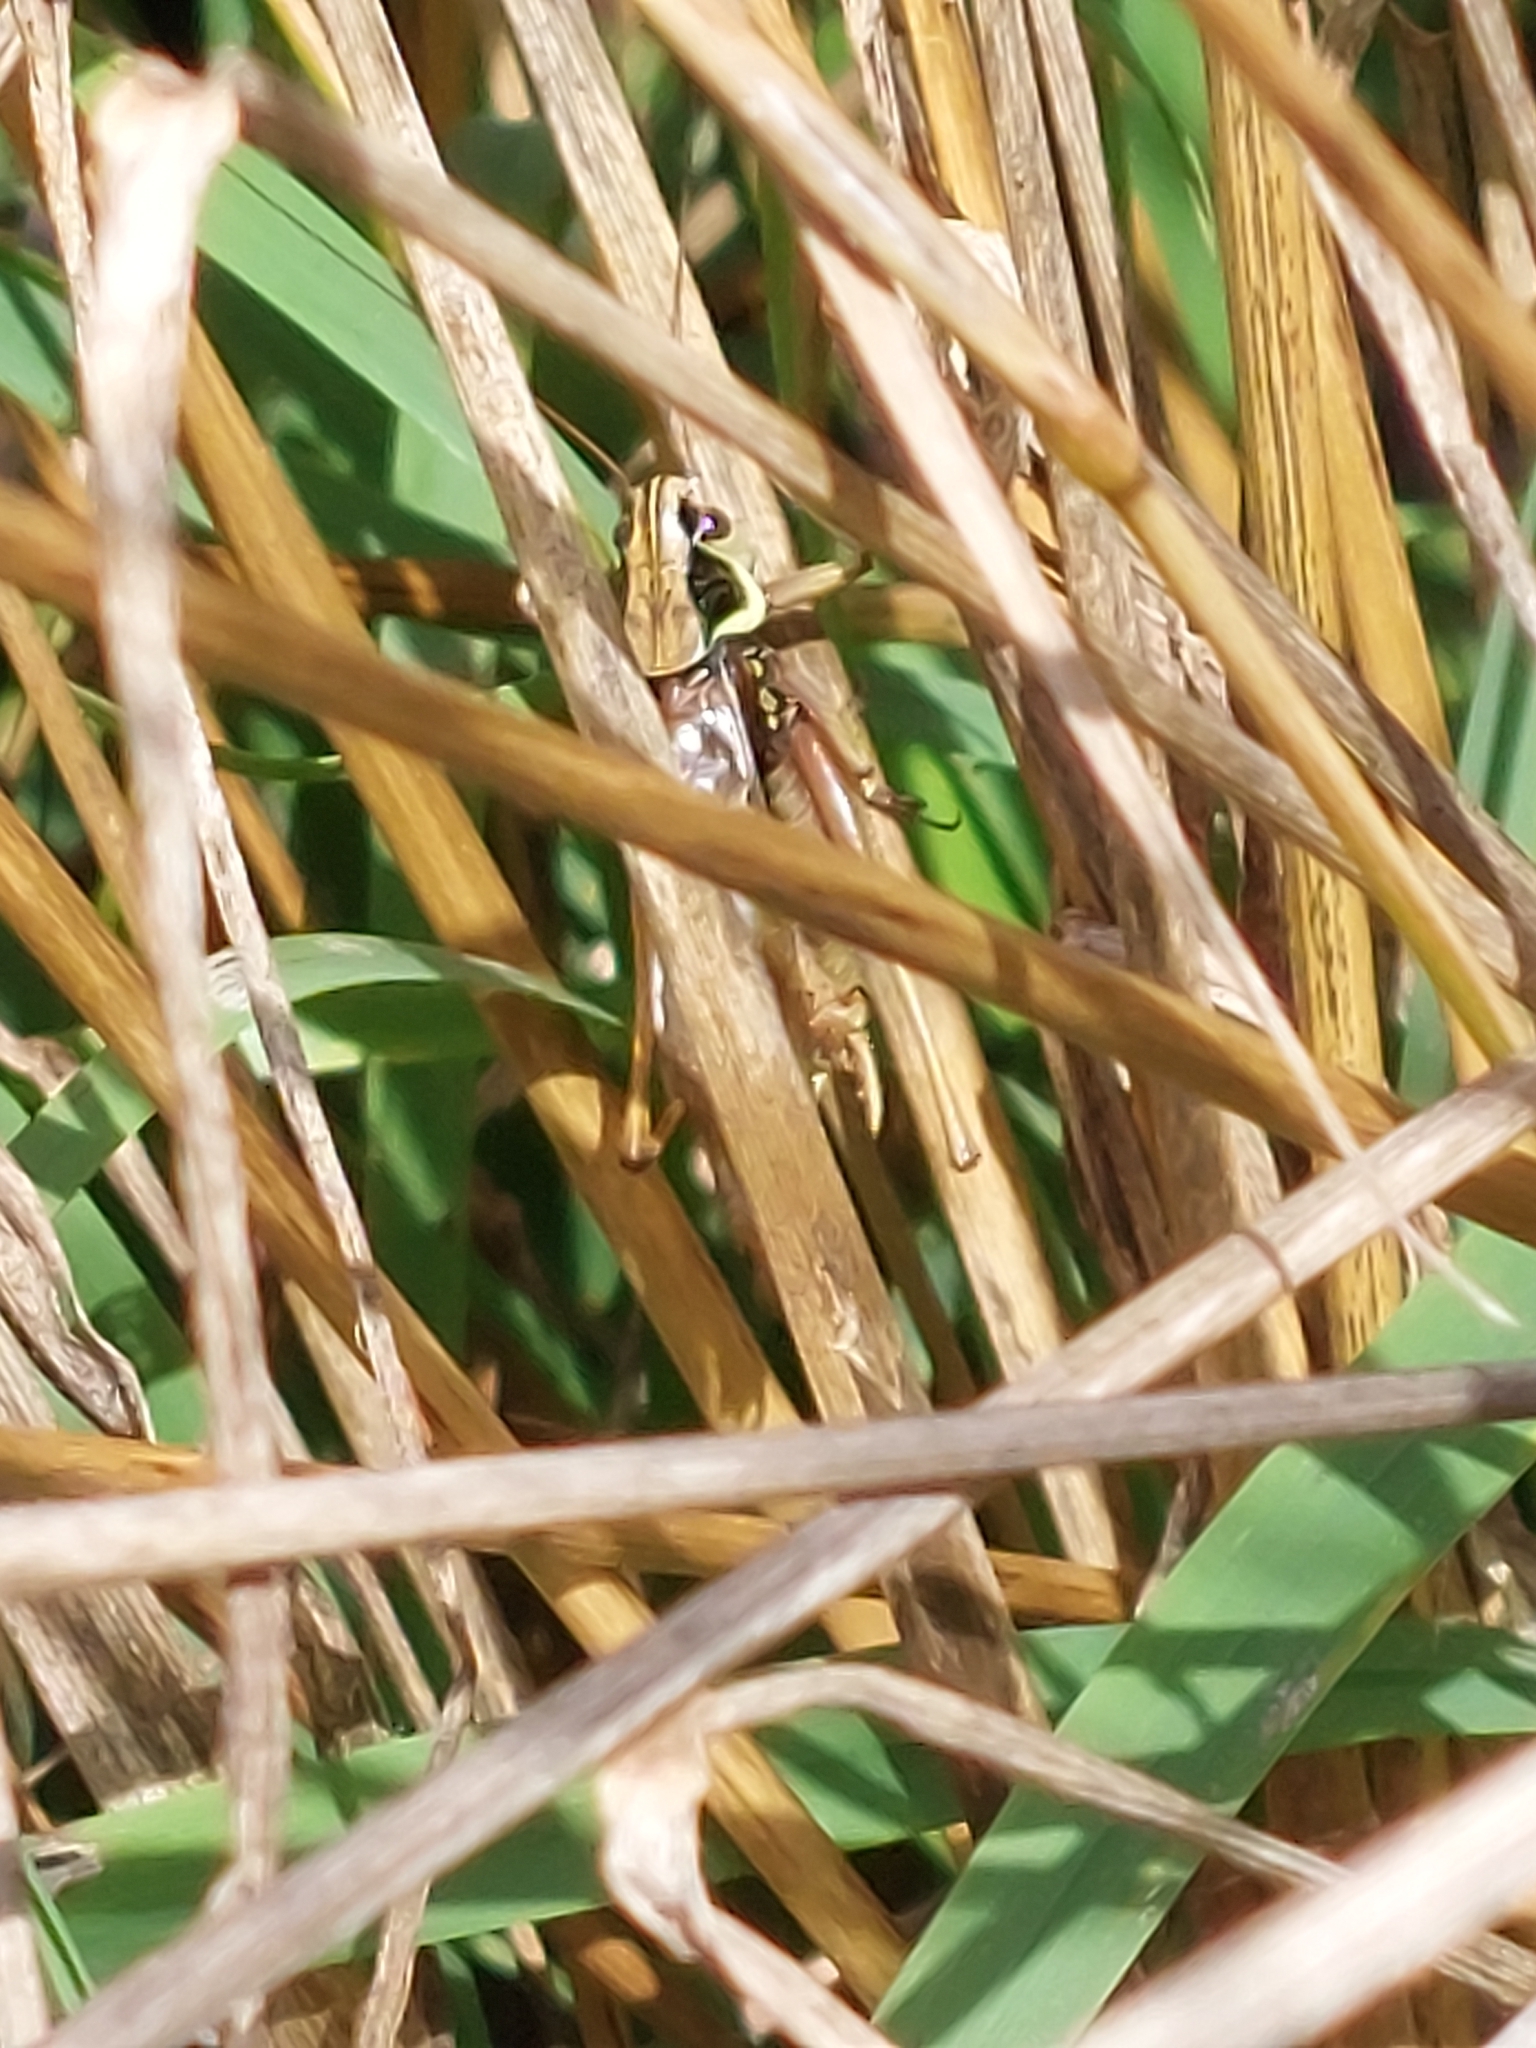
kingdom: Animalia
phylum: Arthropoda
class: Insecta
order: Orthoptera
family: Tettigoniidae
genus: Roeseliana
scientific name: Roeseliana roeselii
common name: Roesel's bush cricket
